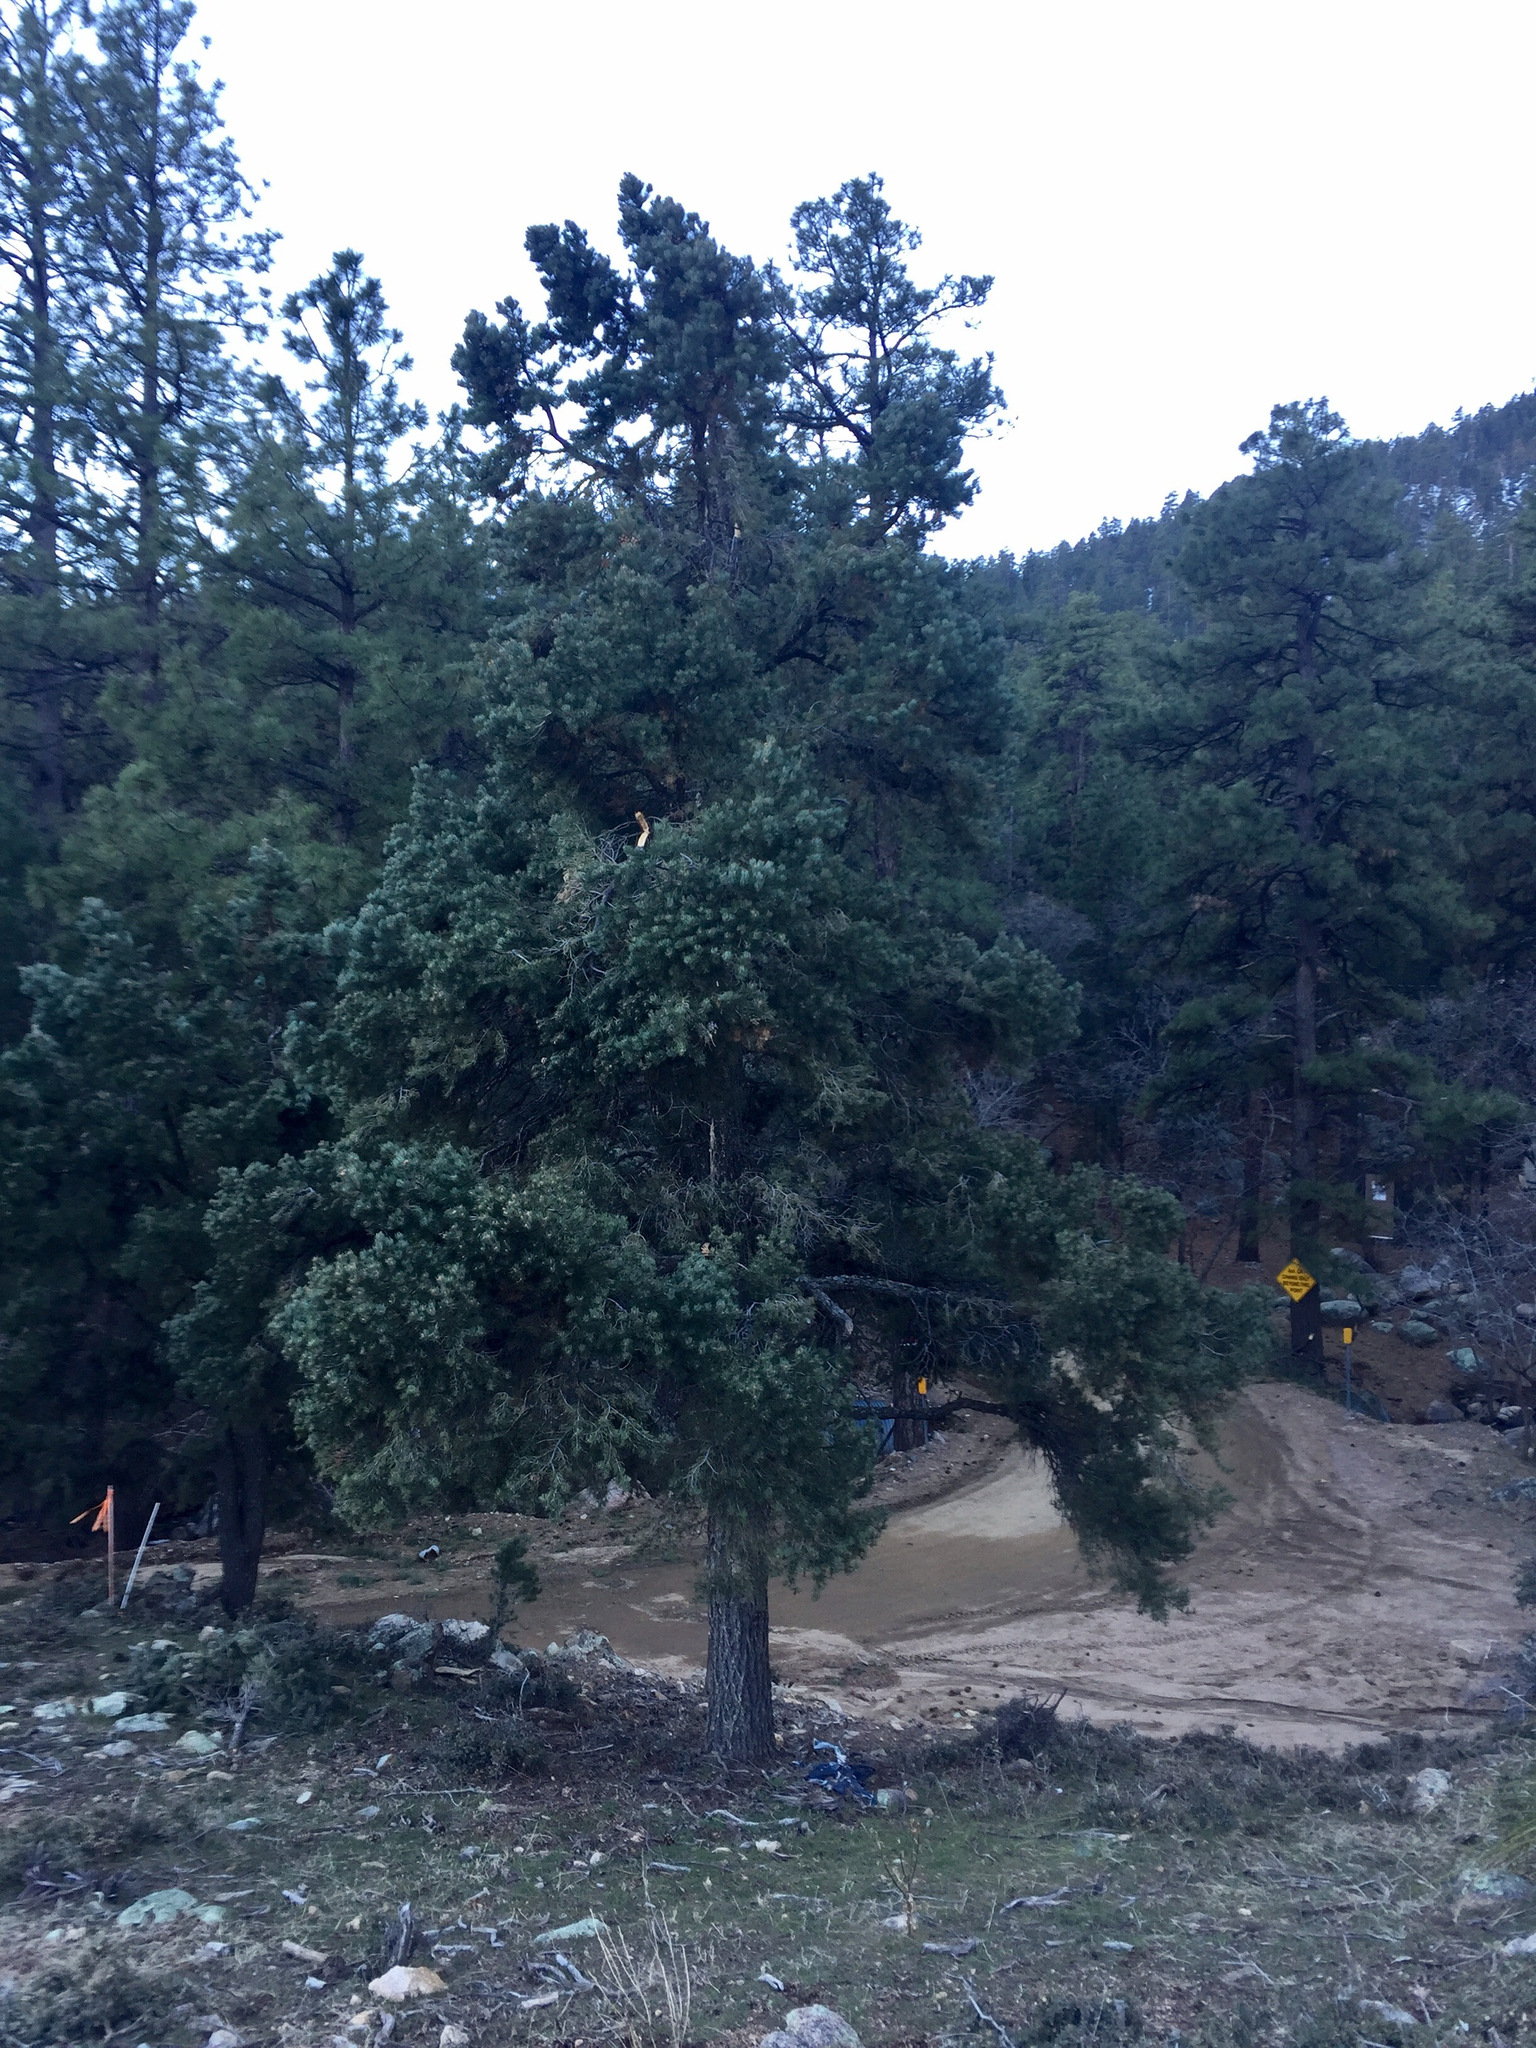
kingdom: Plantae
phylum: Tracheophyta
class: Pinopsida
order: Pinales
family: Pinaceae
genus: Pseudotsuga
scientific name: Pseudotsuga menziesii
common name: Douglas fir
